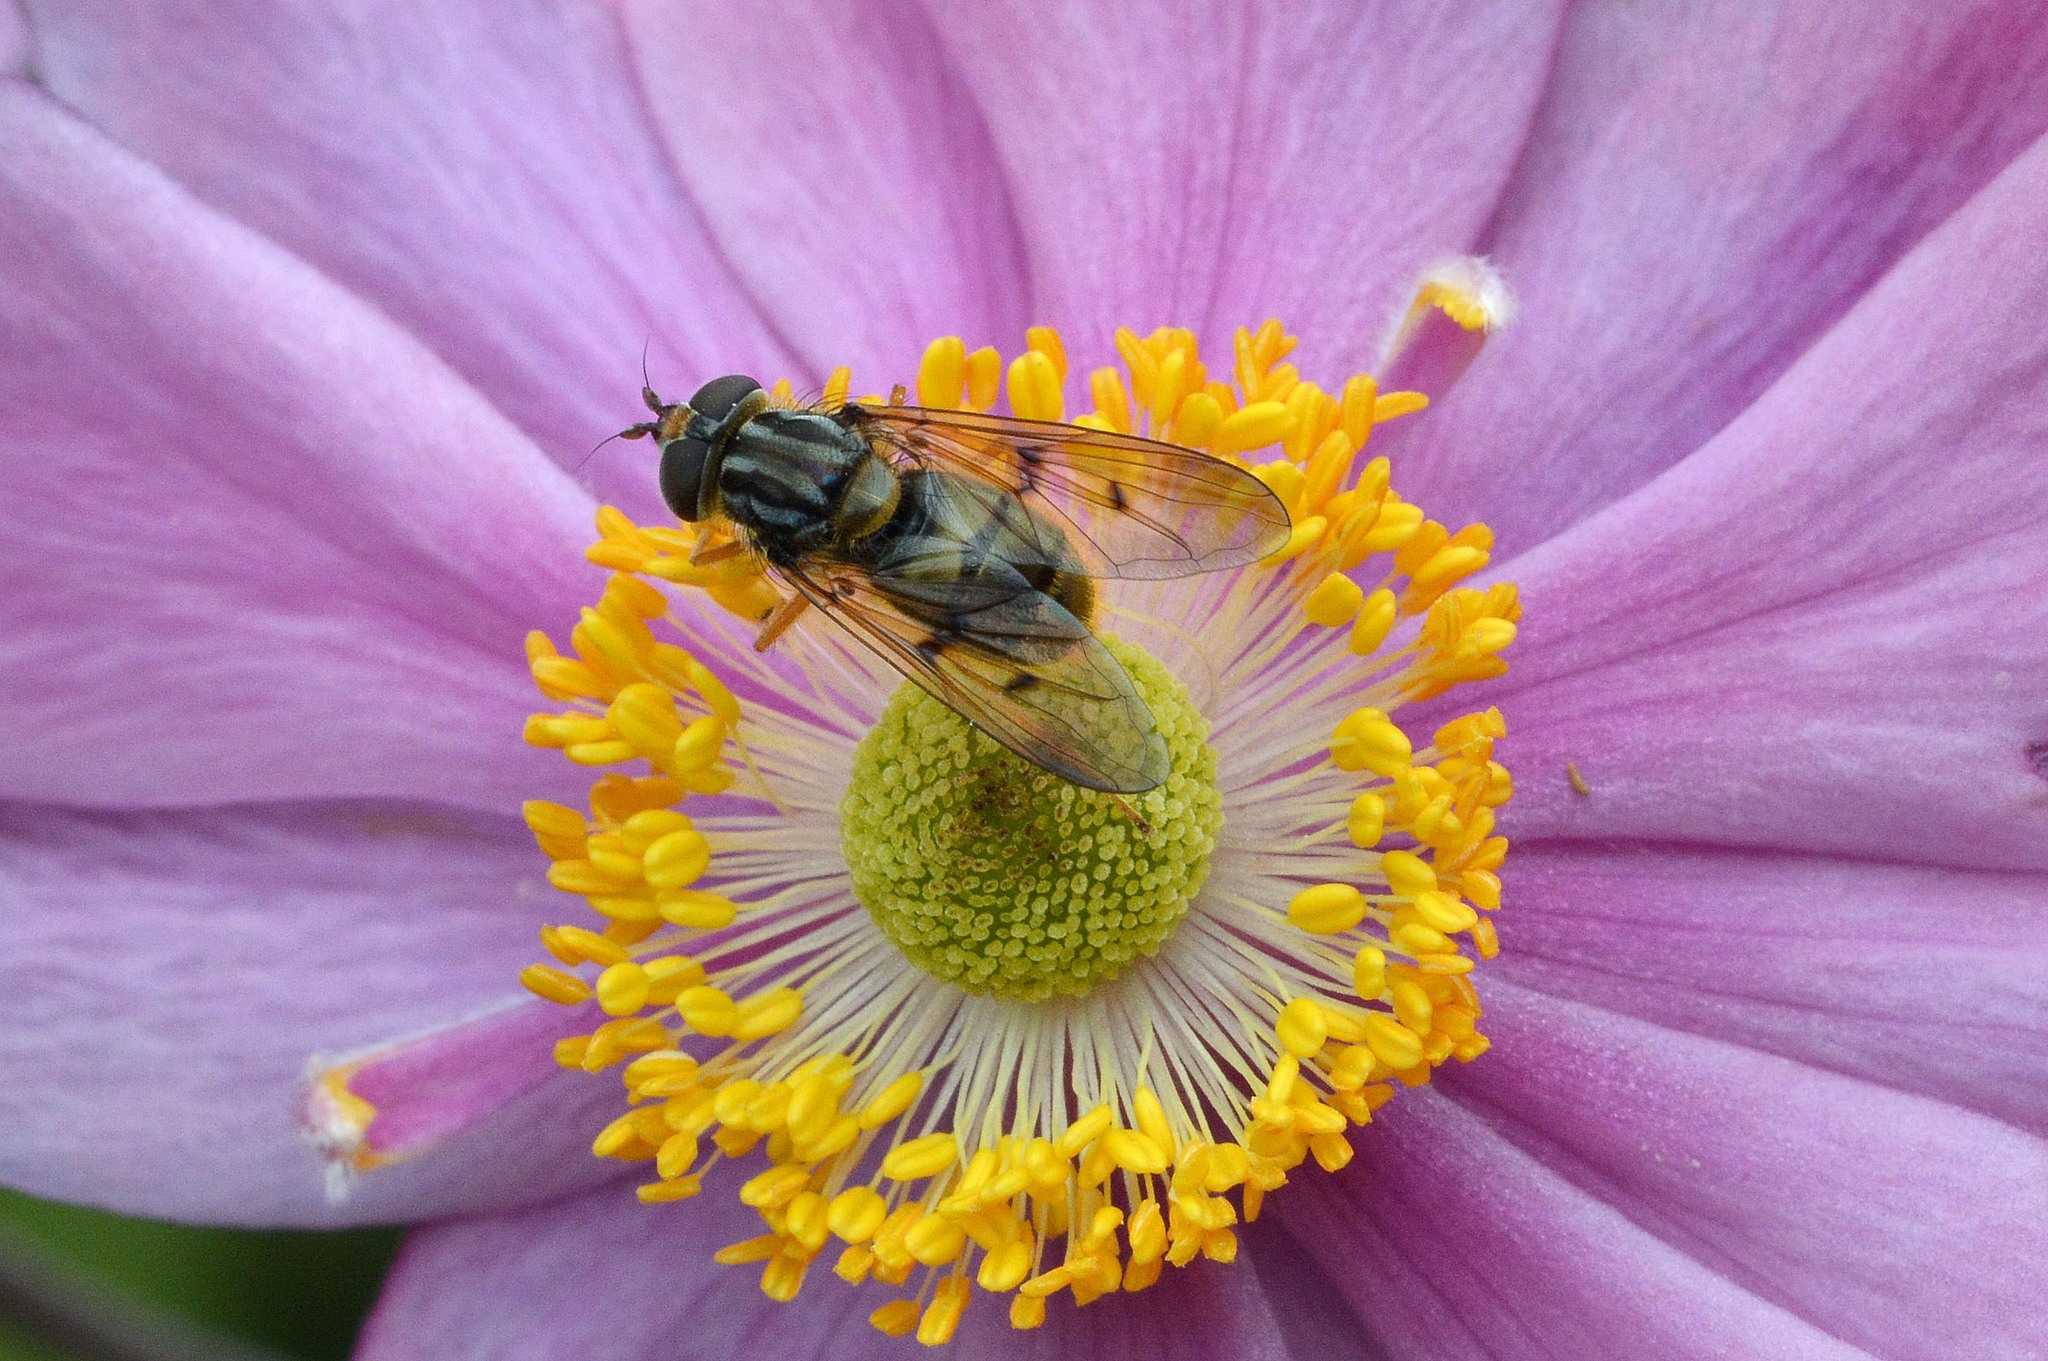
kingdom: Animalia
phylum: Arthropoda
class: Insecta
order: Diptera
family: Syrphidae
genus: Ferdinandea
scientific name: Ferdinandea cuprea
